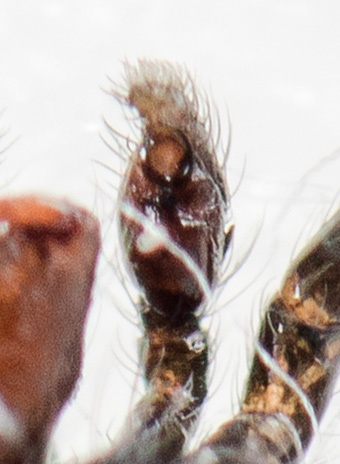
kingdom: Animalia
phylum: Arthropoda
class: Arachnida
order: Araneae
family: Salticidae
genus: Chalcoscirtus
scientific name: Chalcoscirtus infimus
